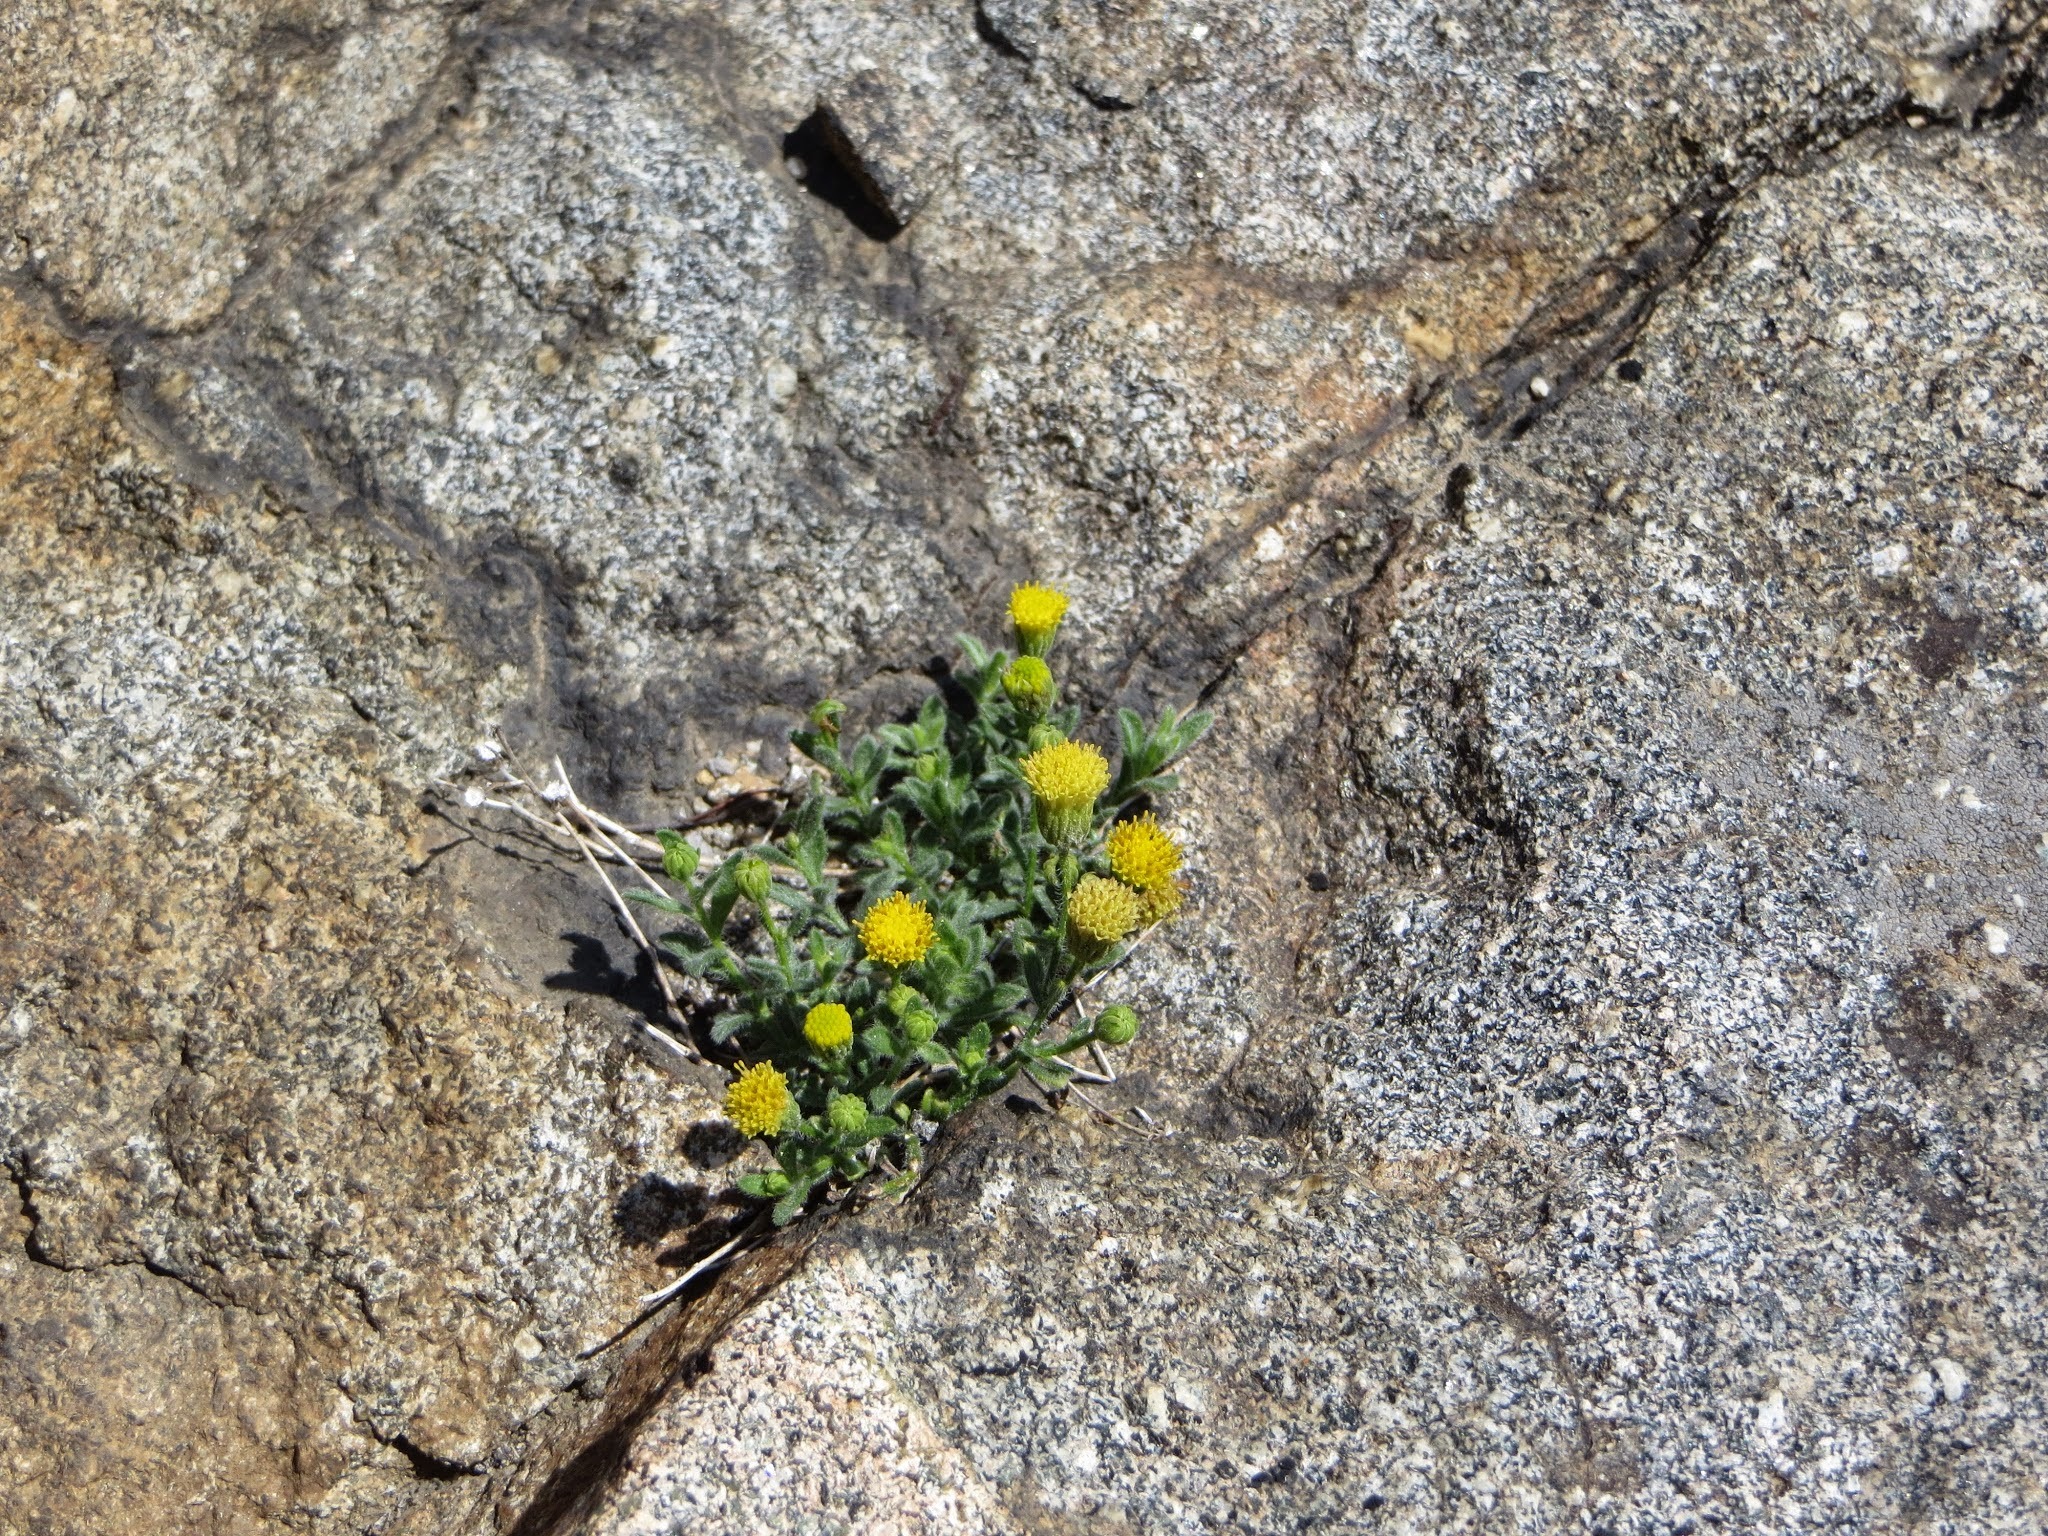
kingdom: Plantae
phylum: Tracheophyta
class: Magnoliopsida
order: Asterales
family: Asteraceae
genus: Erigeron
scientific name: Erigeron miser
